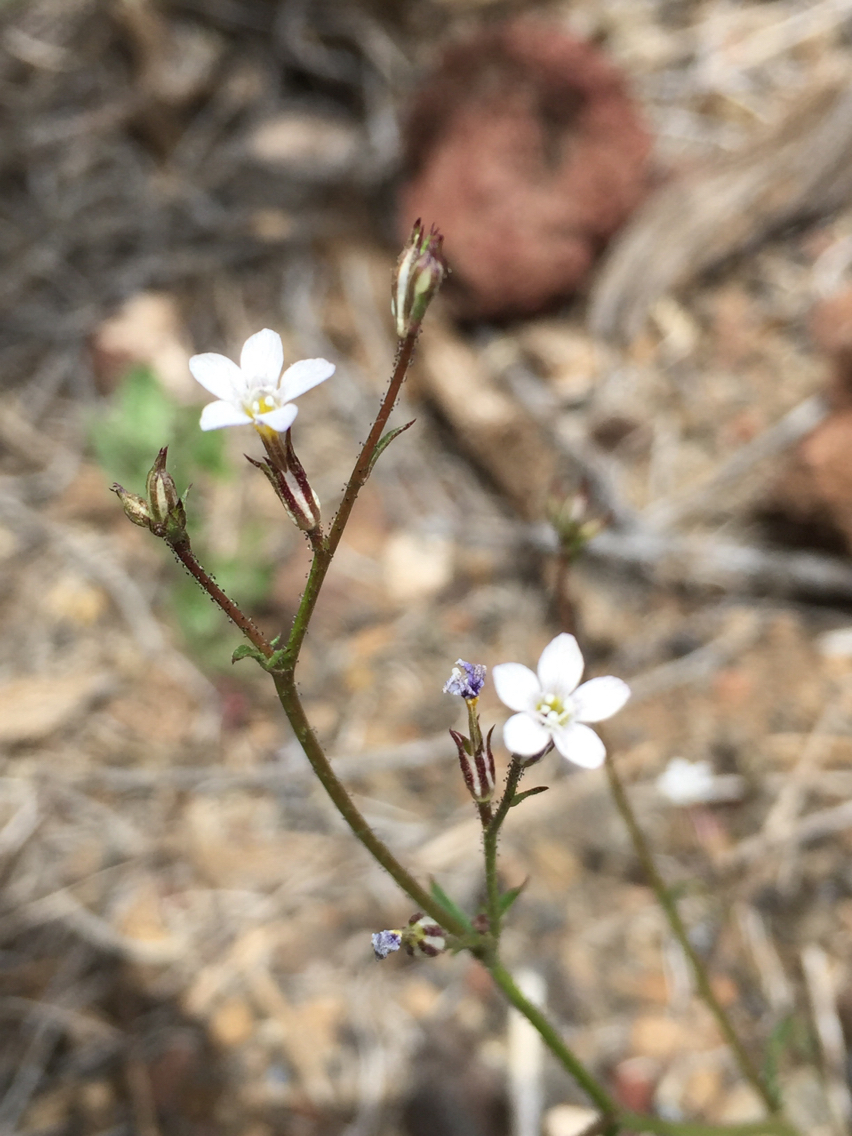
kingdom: Plantae
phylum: Tracheophyta
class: Magnoliopsida
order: Ericales
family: Polemoniaceae
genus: Gilia
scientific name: Gilia clokeyi
